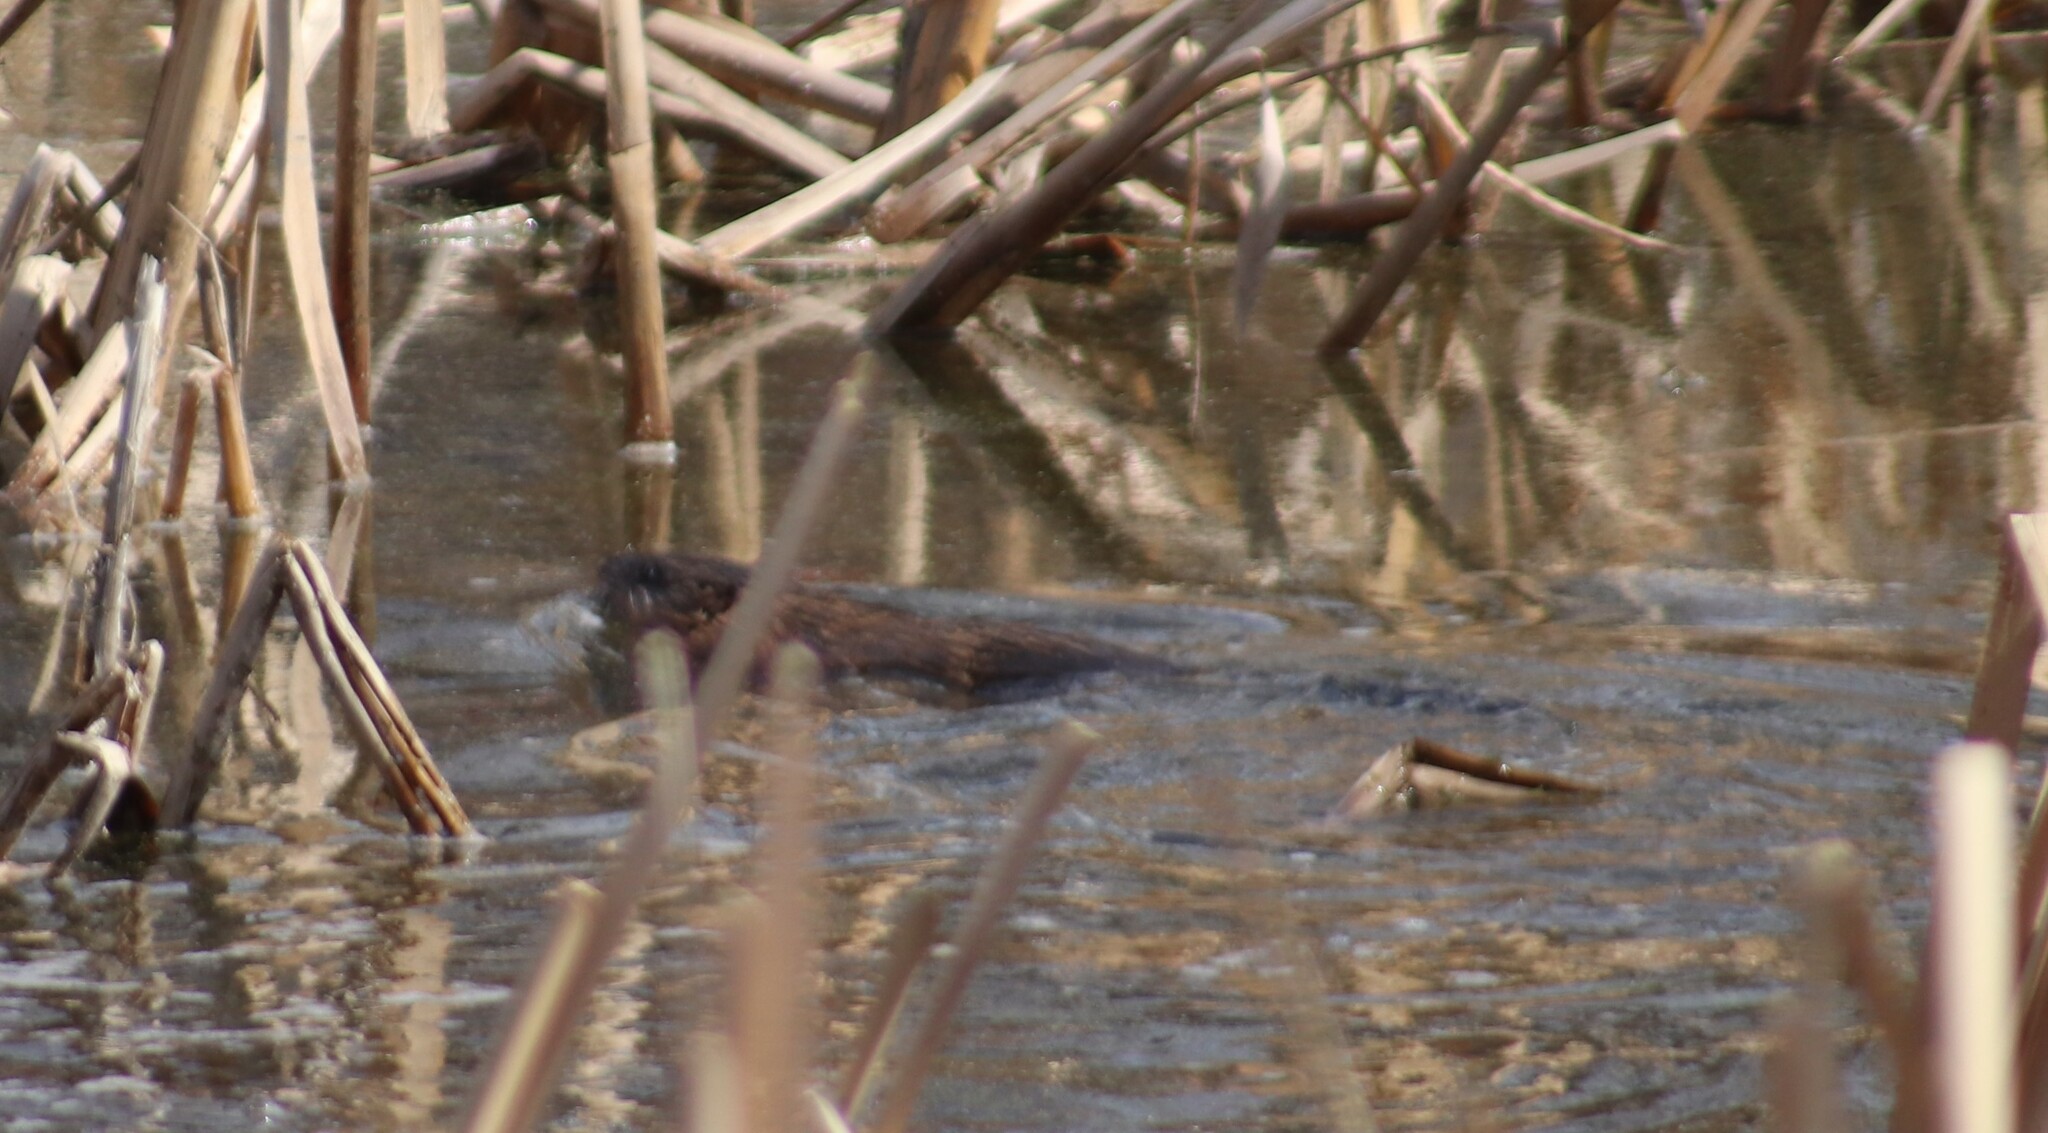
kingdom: Animalia
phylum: Chordata
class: Mammalia
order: Rodentia
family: Cricetidae
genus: Ondatra
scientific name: Ondatra zibethicus
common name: Muskrat
